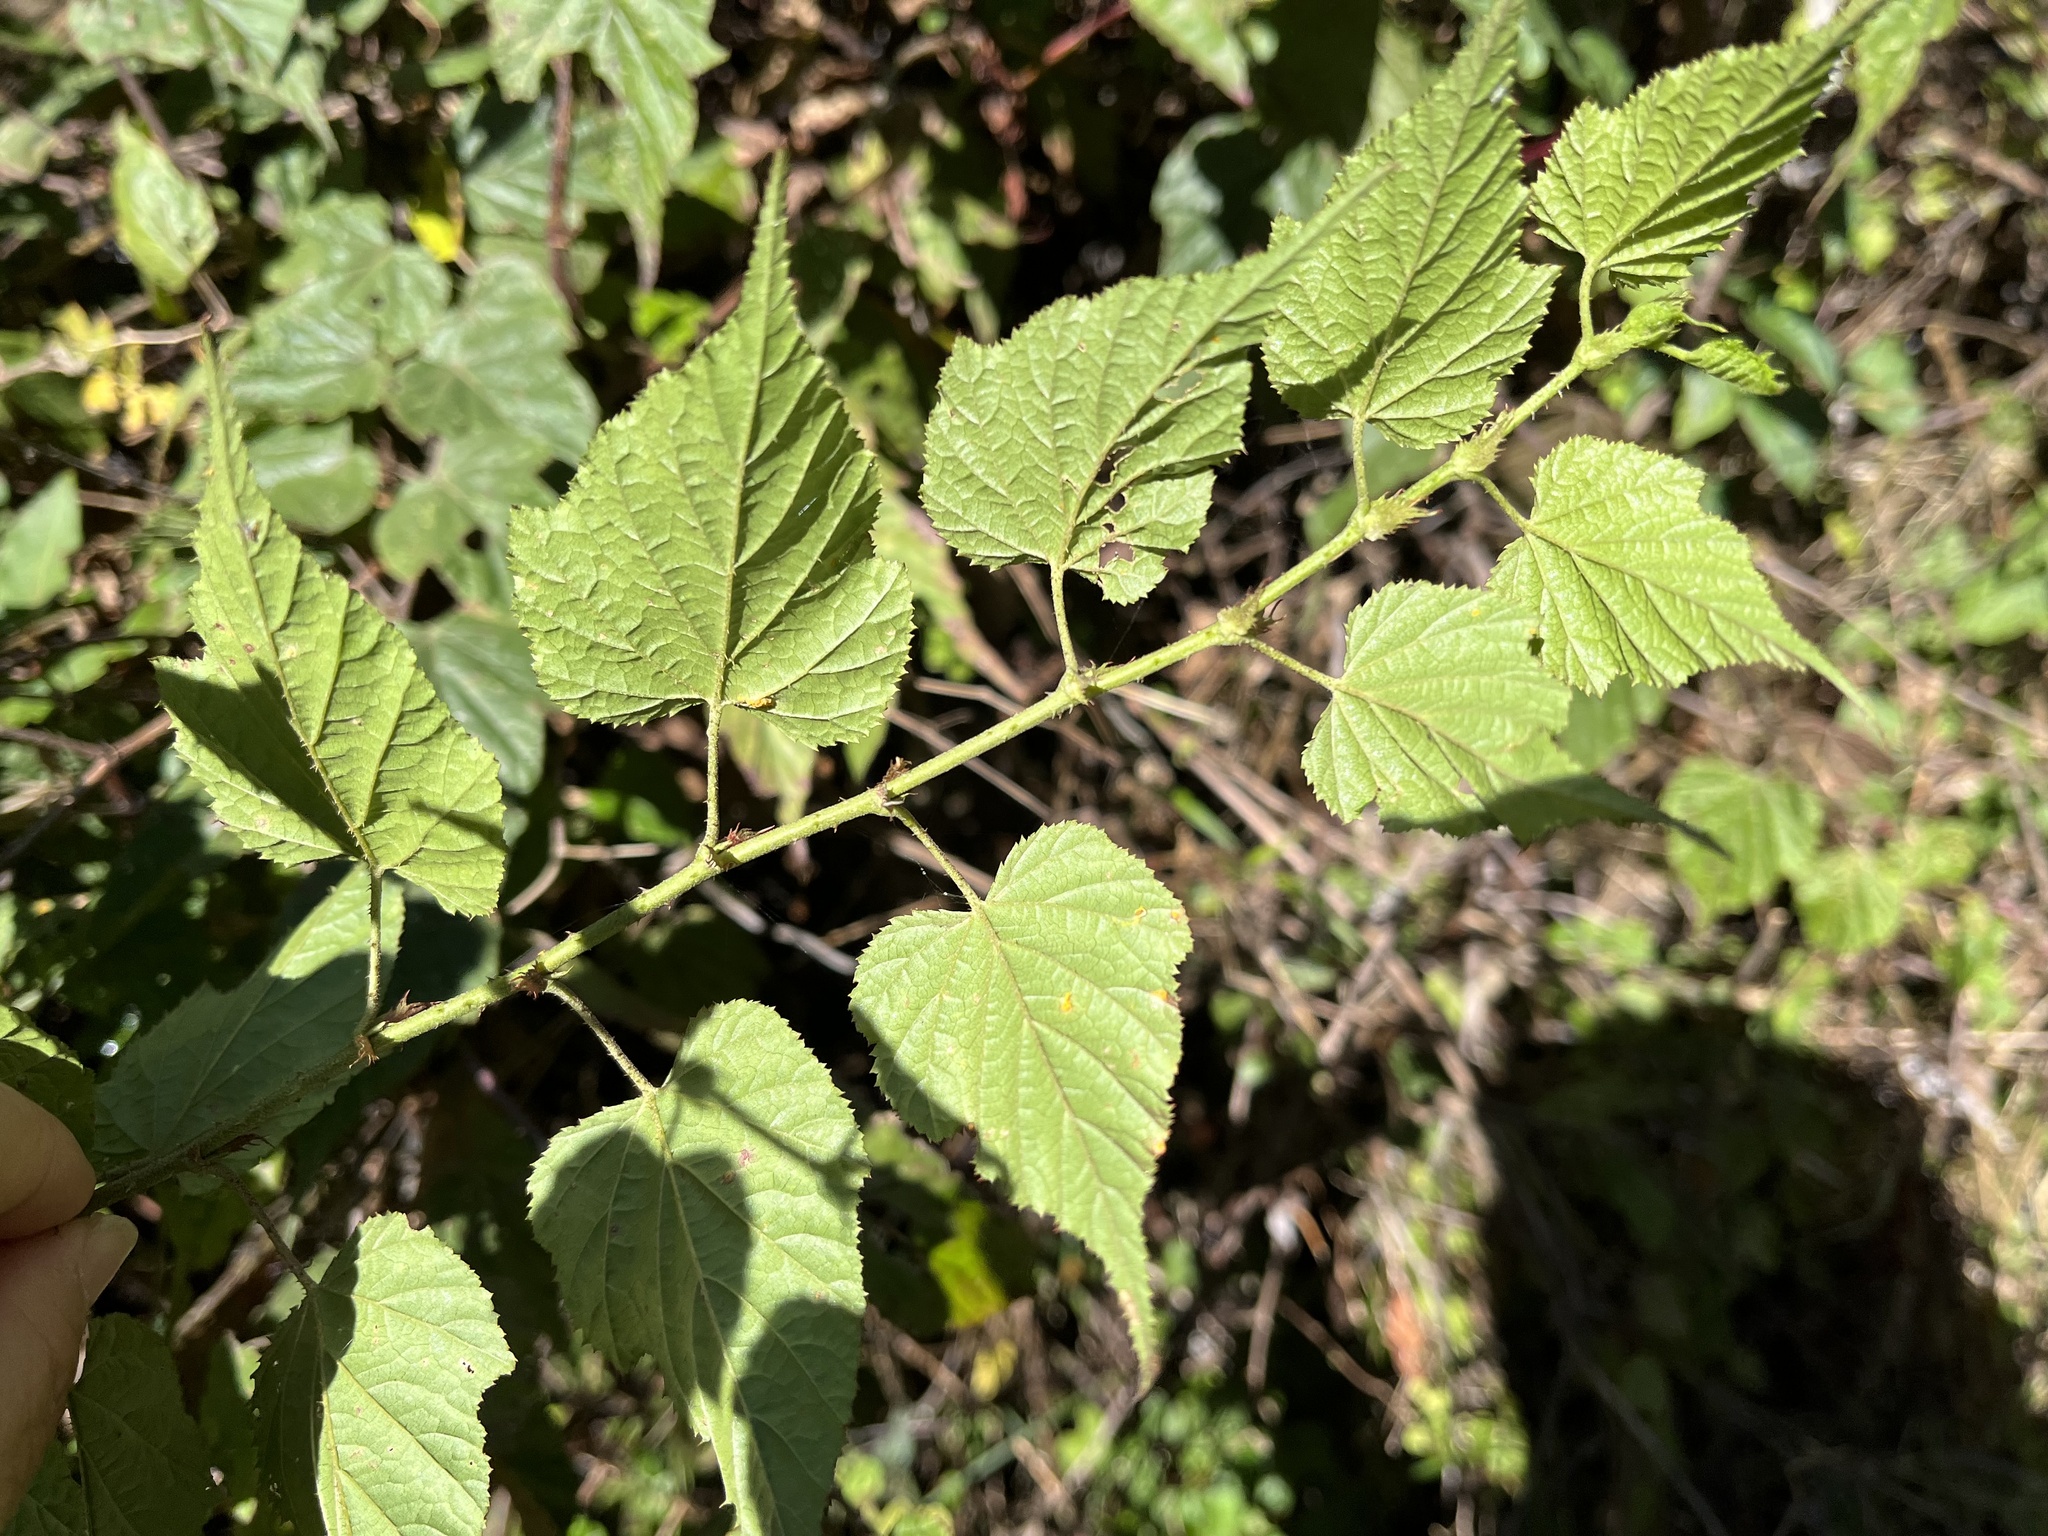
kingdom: Plantae
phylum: Tracheophyta
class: Magnoliopsida
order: Rosales
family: Rosaceae
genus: Rubus
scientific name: Rubus lambertianus
